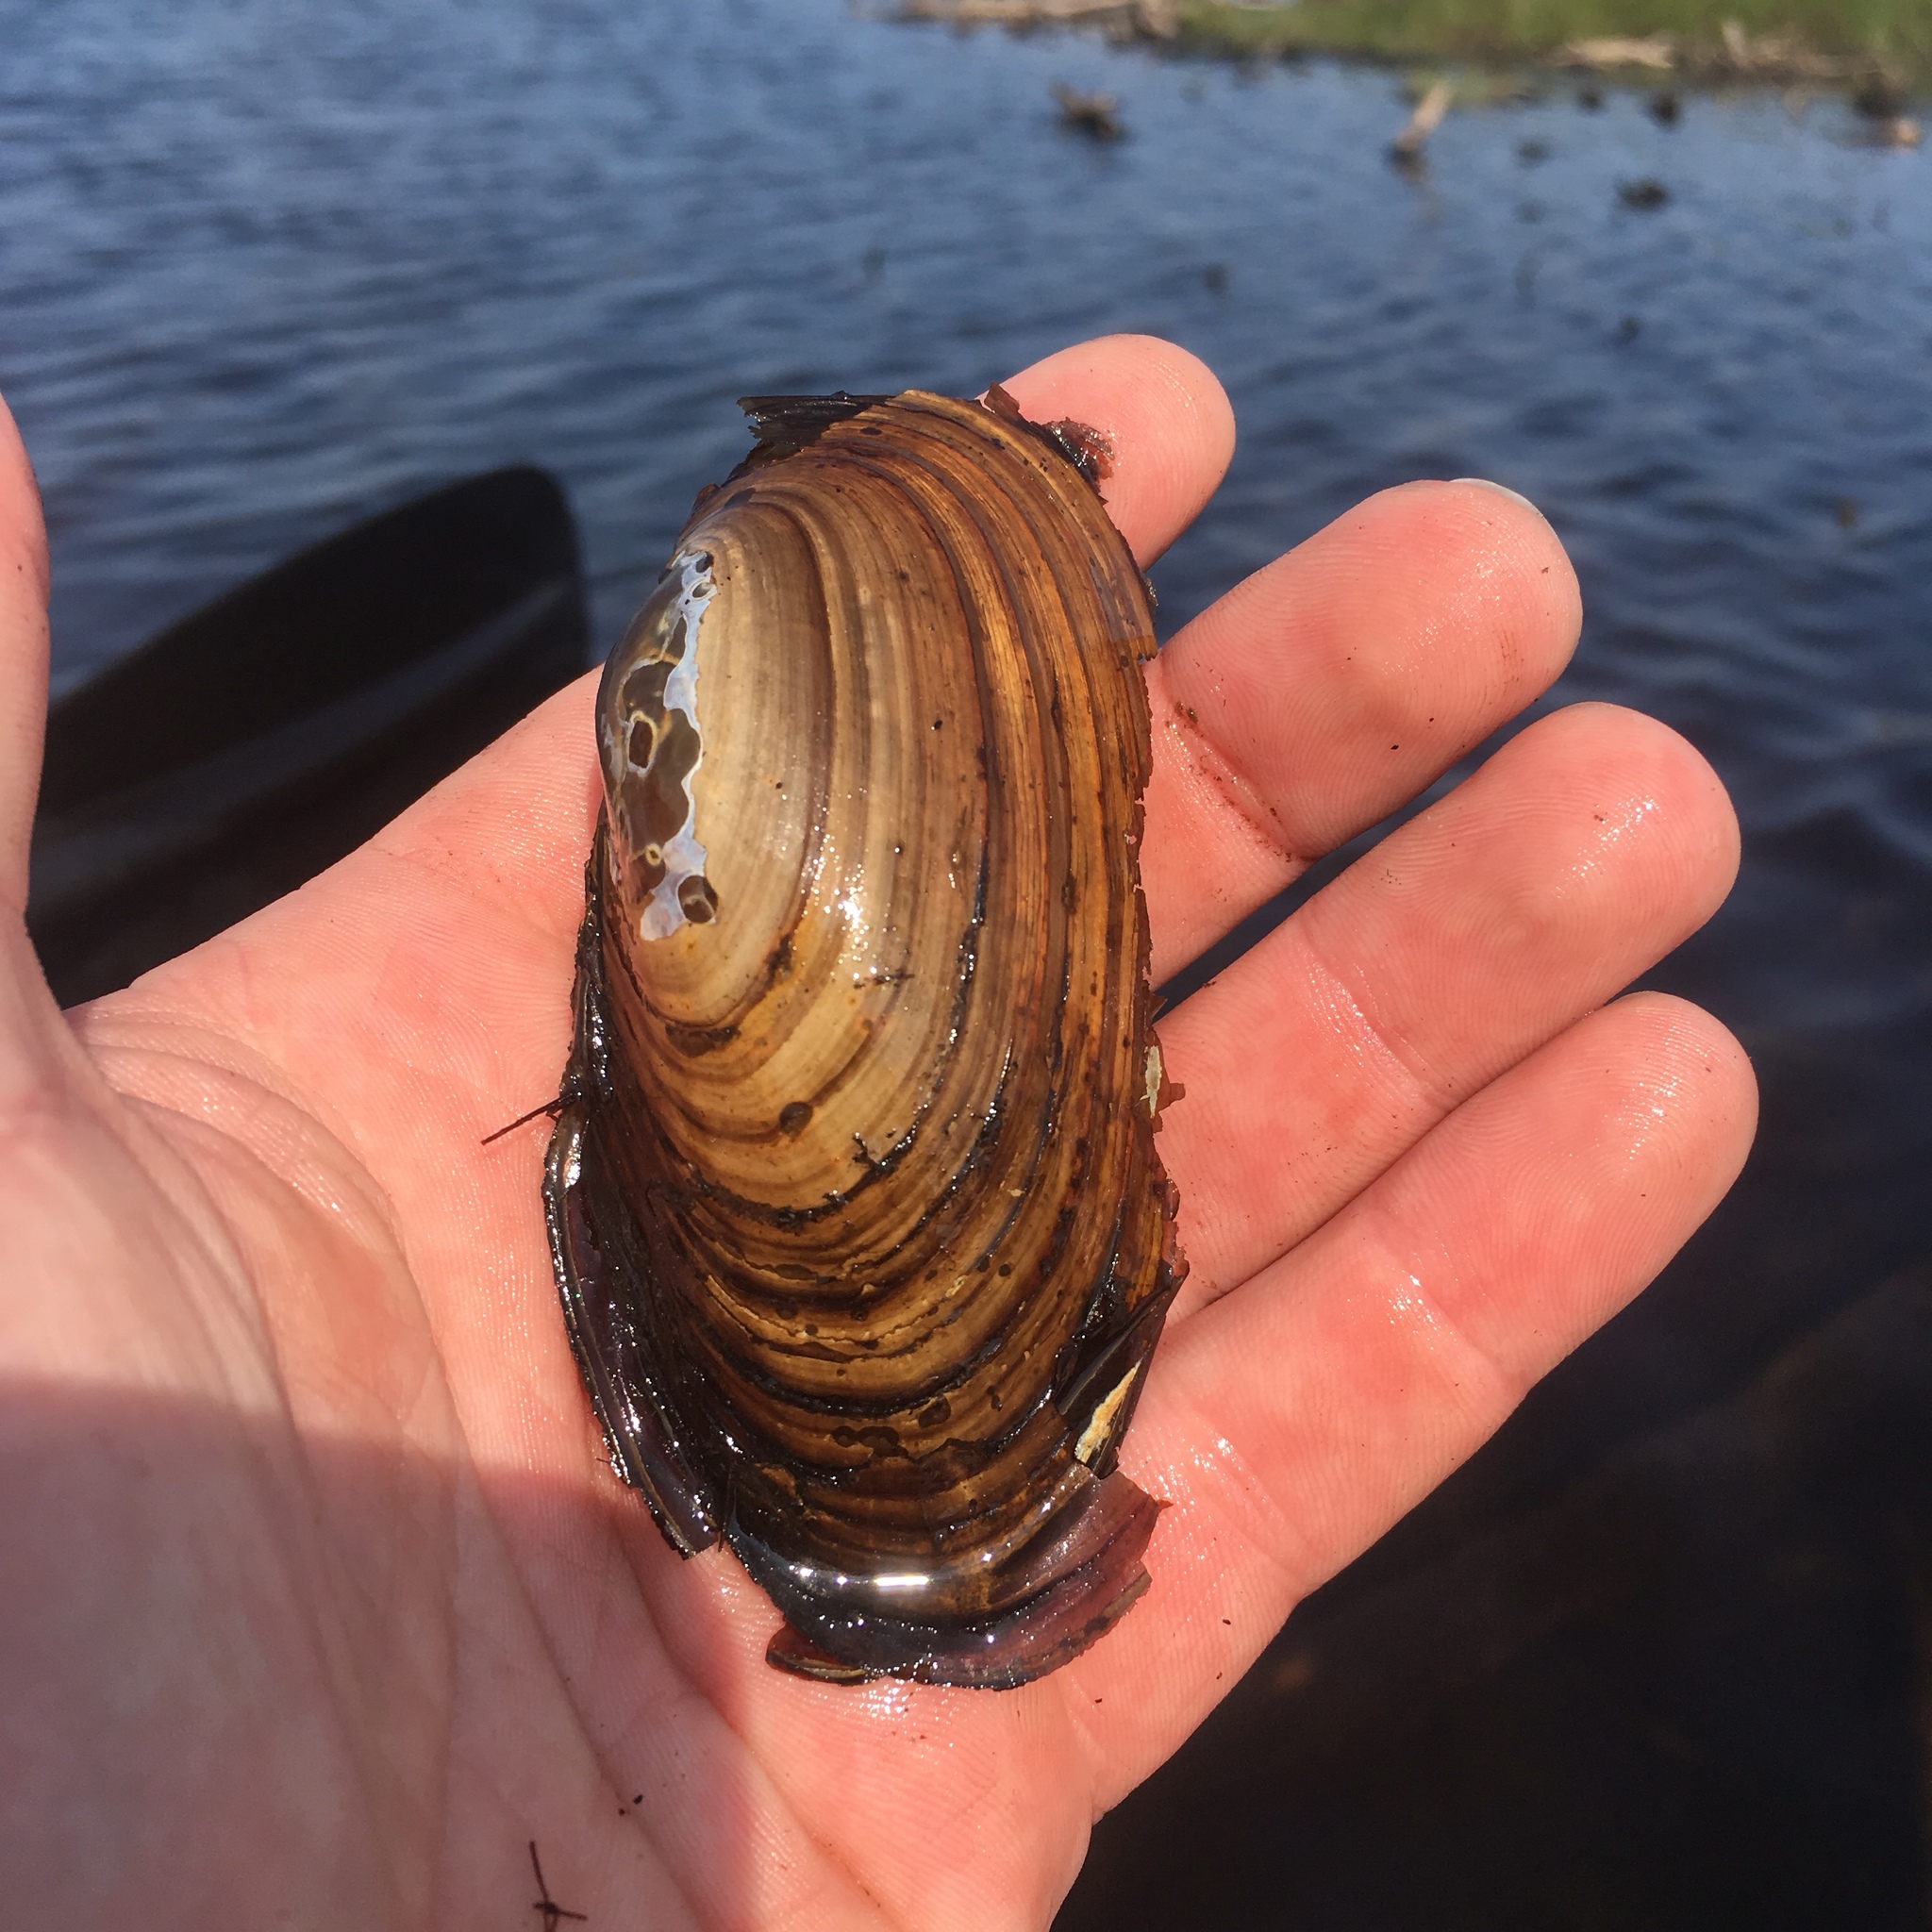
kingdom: Animalia
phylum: Mollusca
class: Bivalvia
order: Unionida
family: Unionidae
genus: Pyganodon
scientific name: Pyganodon grandis
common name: Giant floater
